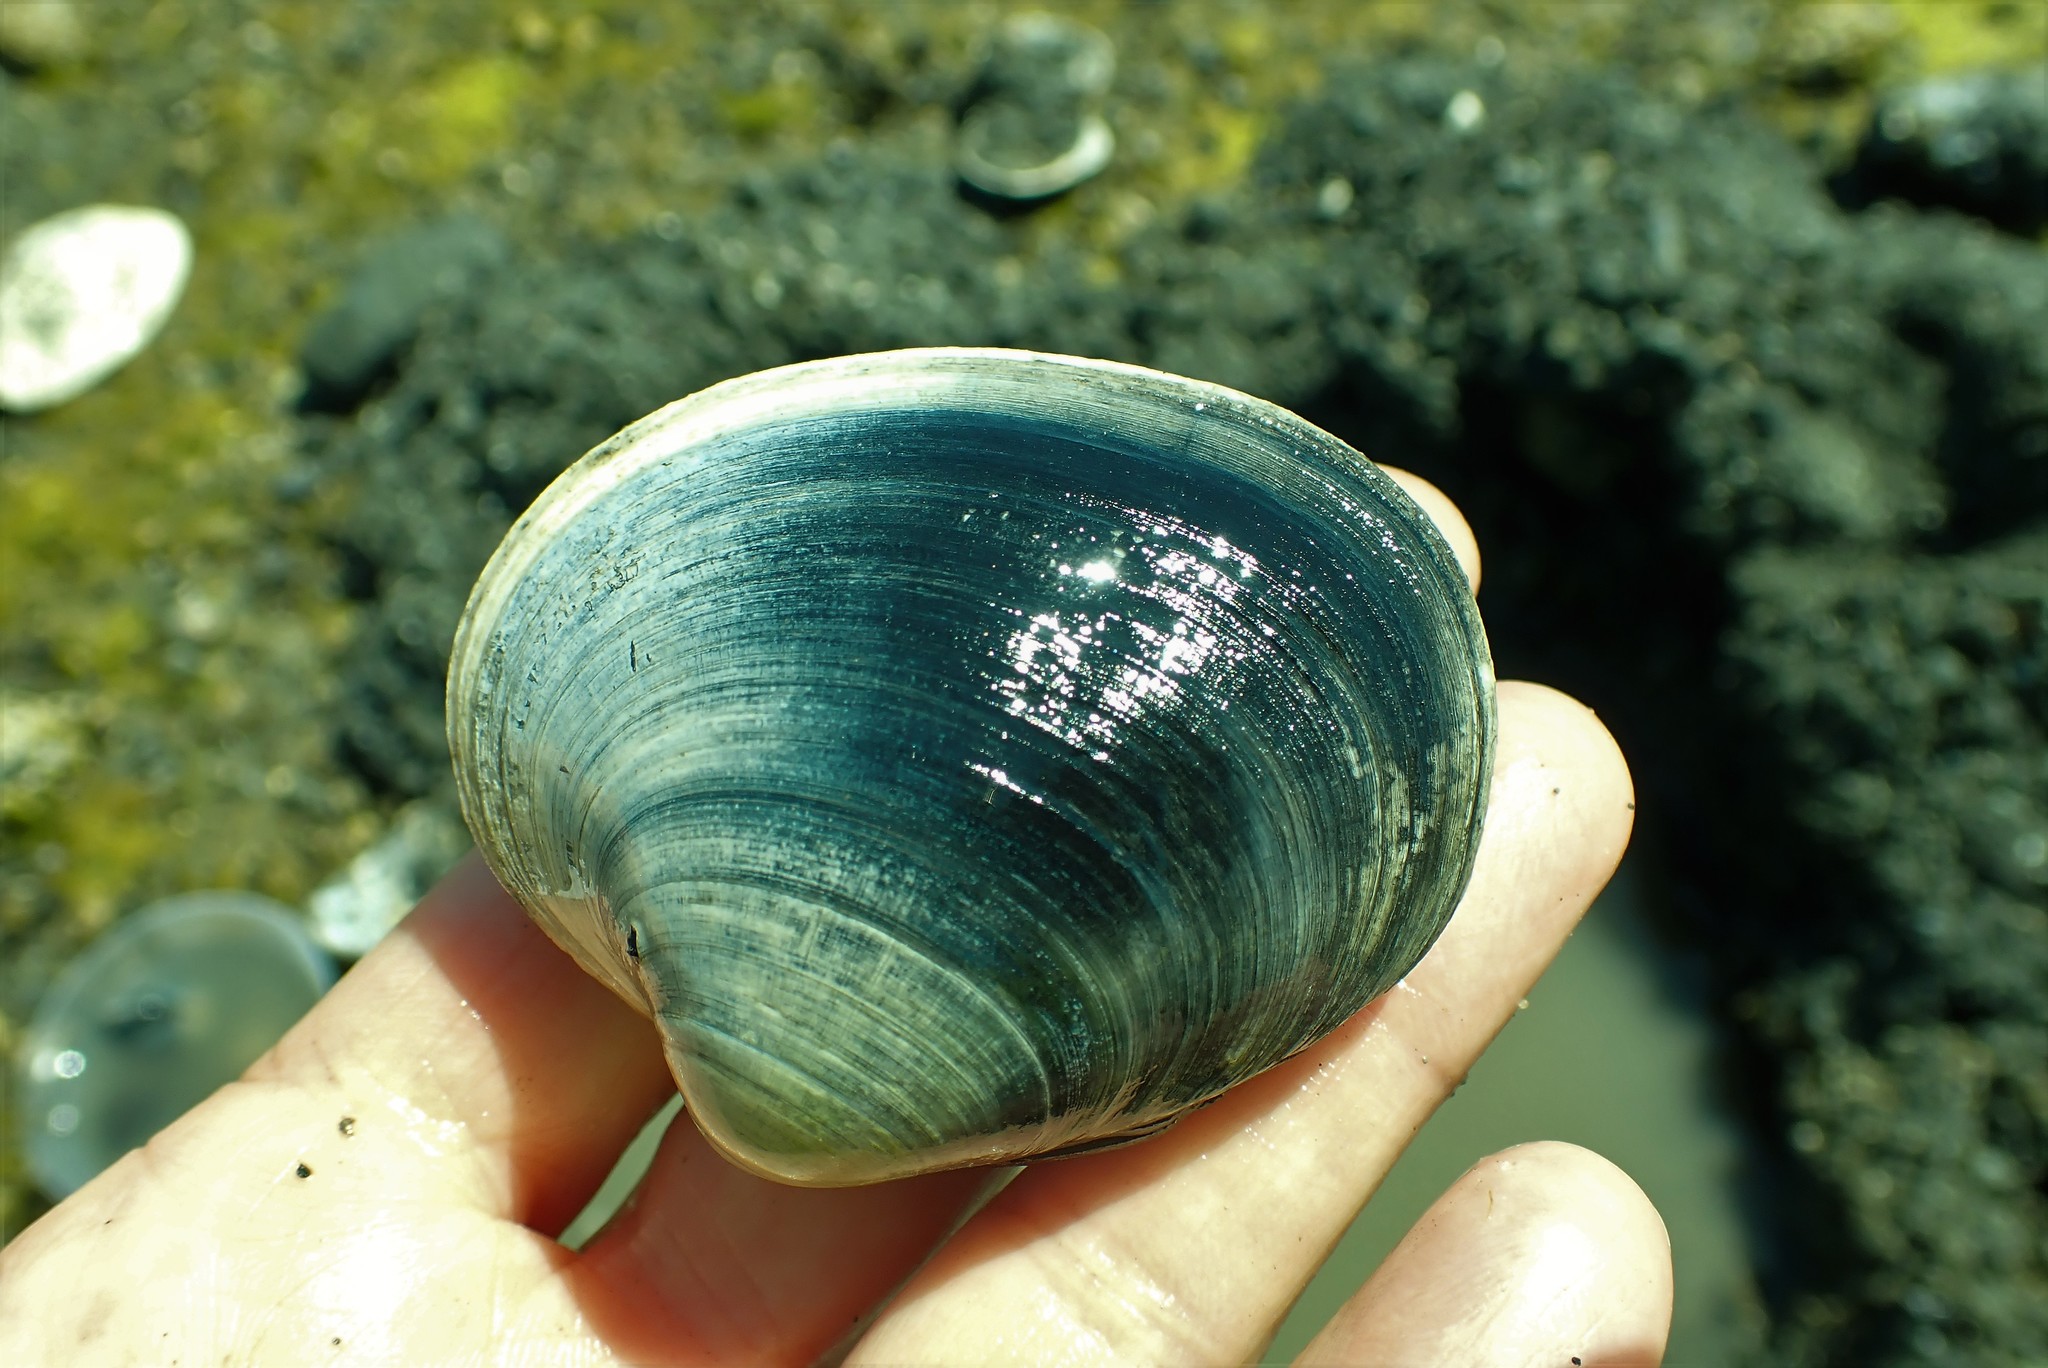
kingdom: Animalia
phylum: Mollusca
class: Bivalvia
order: Venerida
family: Veneridae
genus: Saxidomus
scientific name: Saxidomus gigantea
